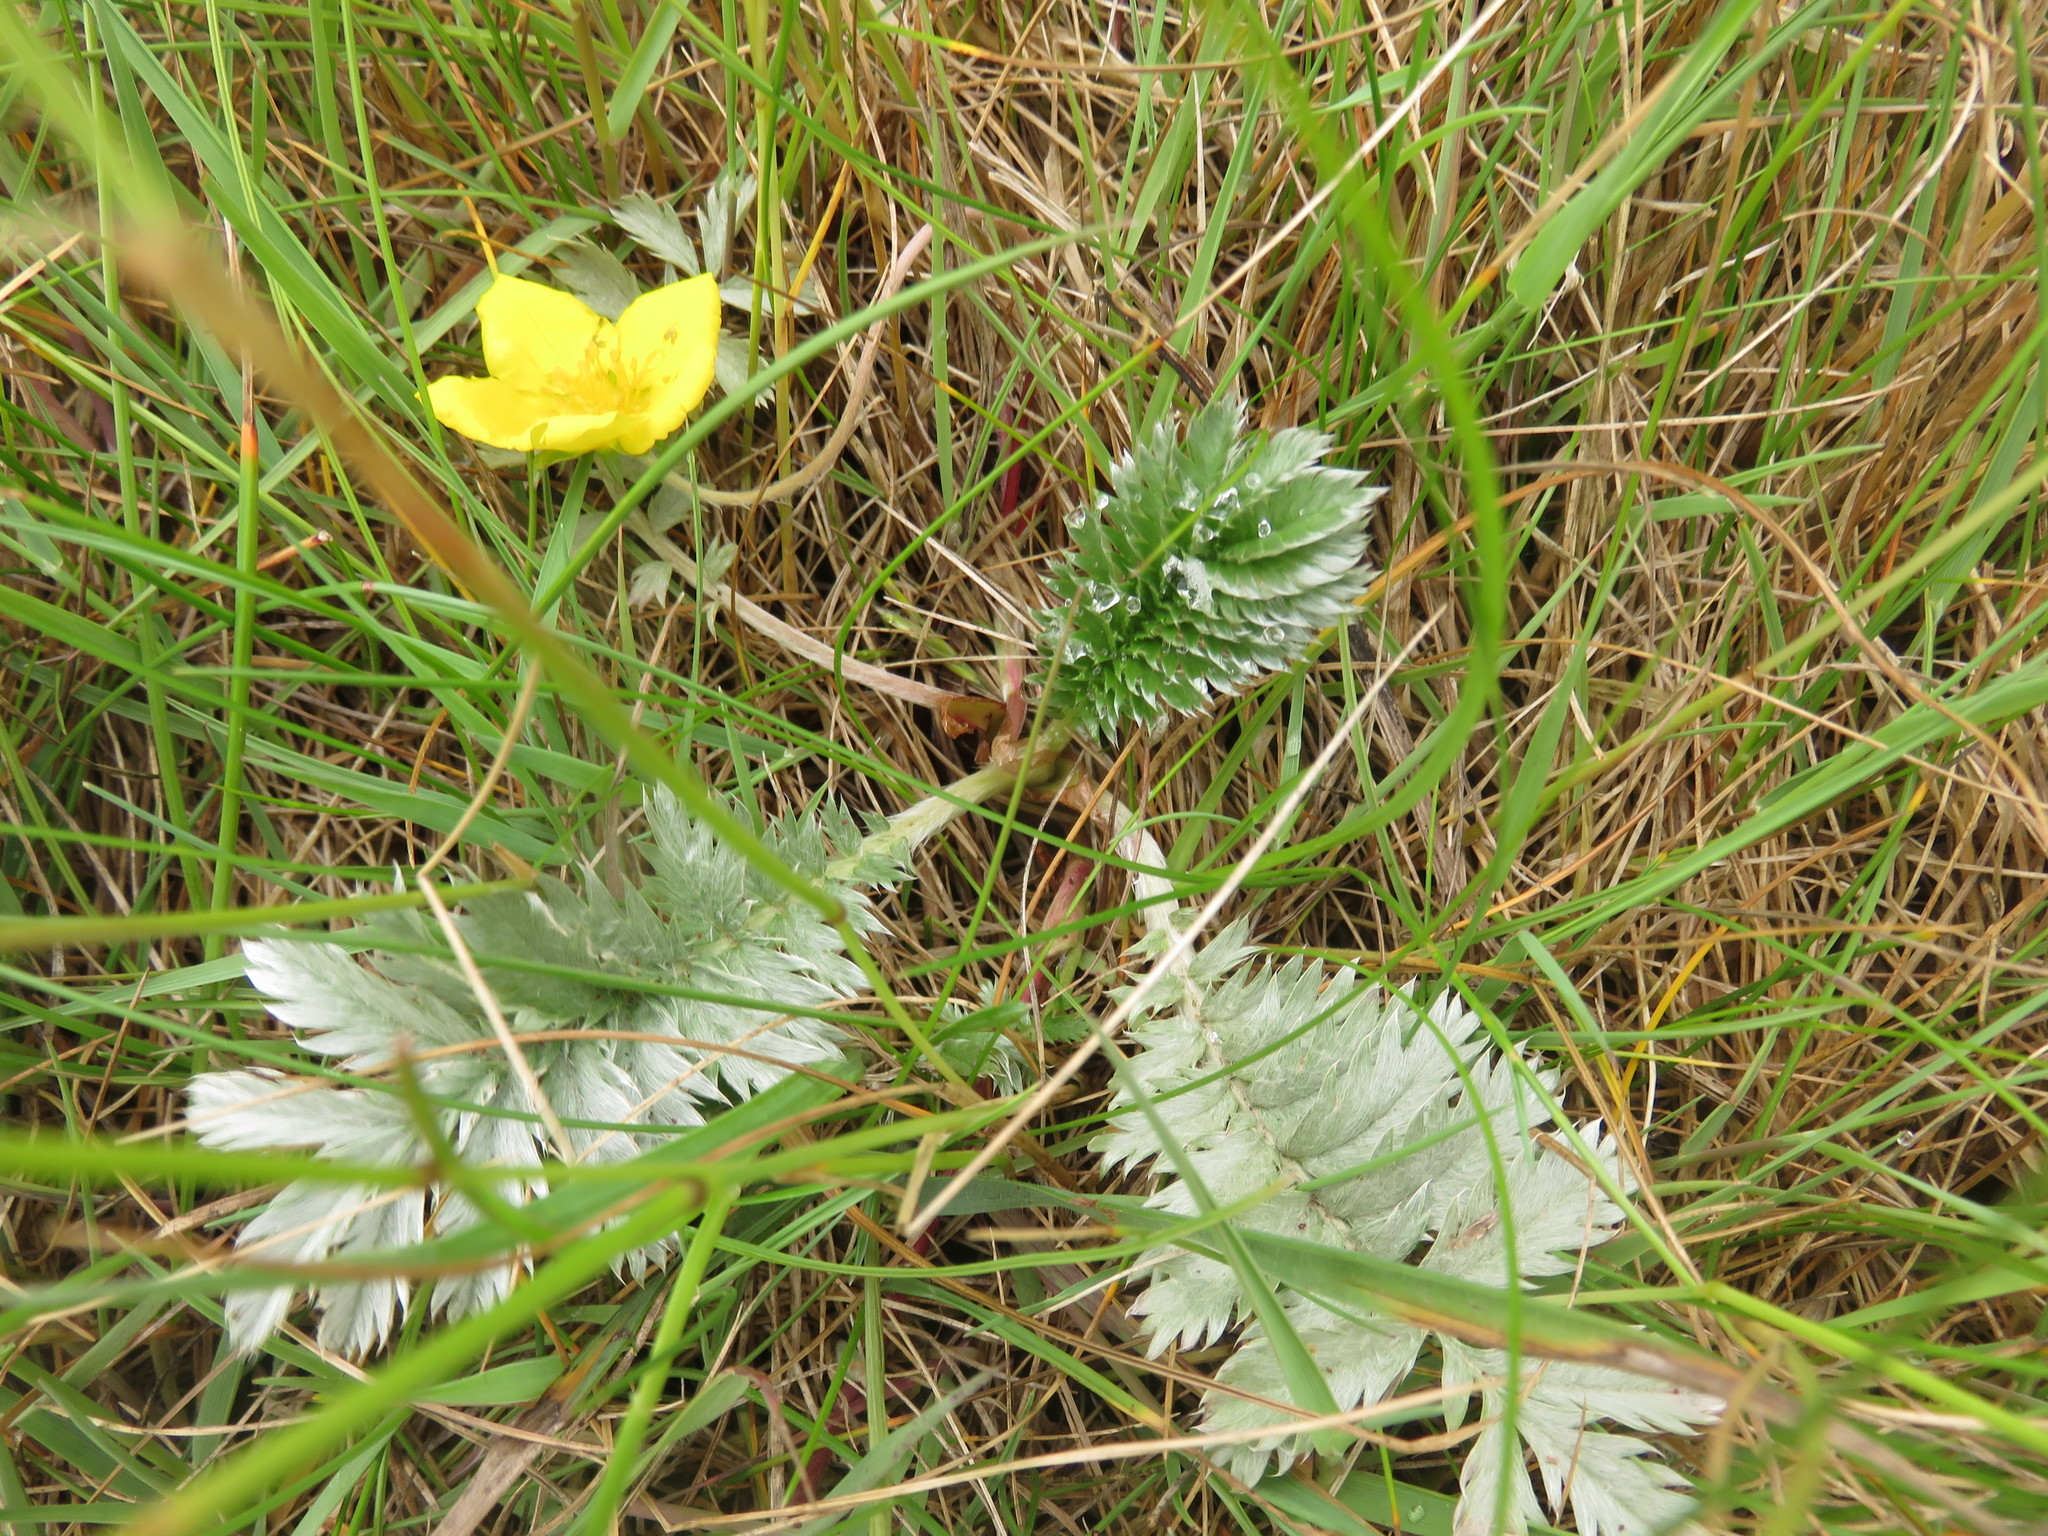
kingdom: Plantae
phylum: Tracheophyta
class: Magnoliopsida
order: Rosales
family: Rosaceae
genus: Argentina
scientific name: Argentina anserina
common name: Common silverweed
